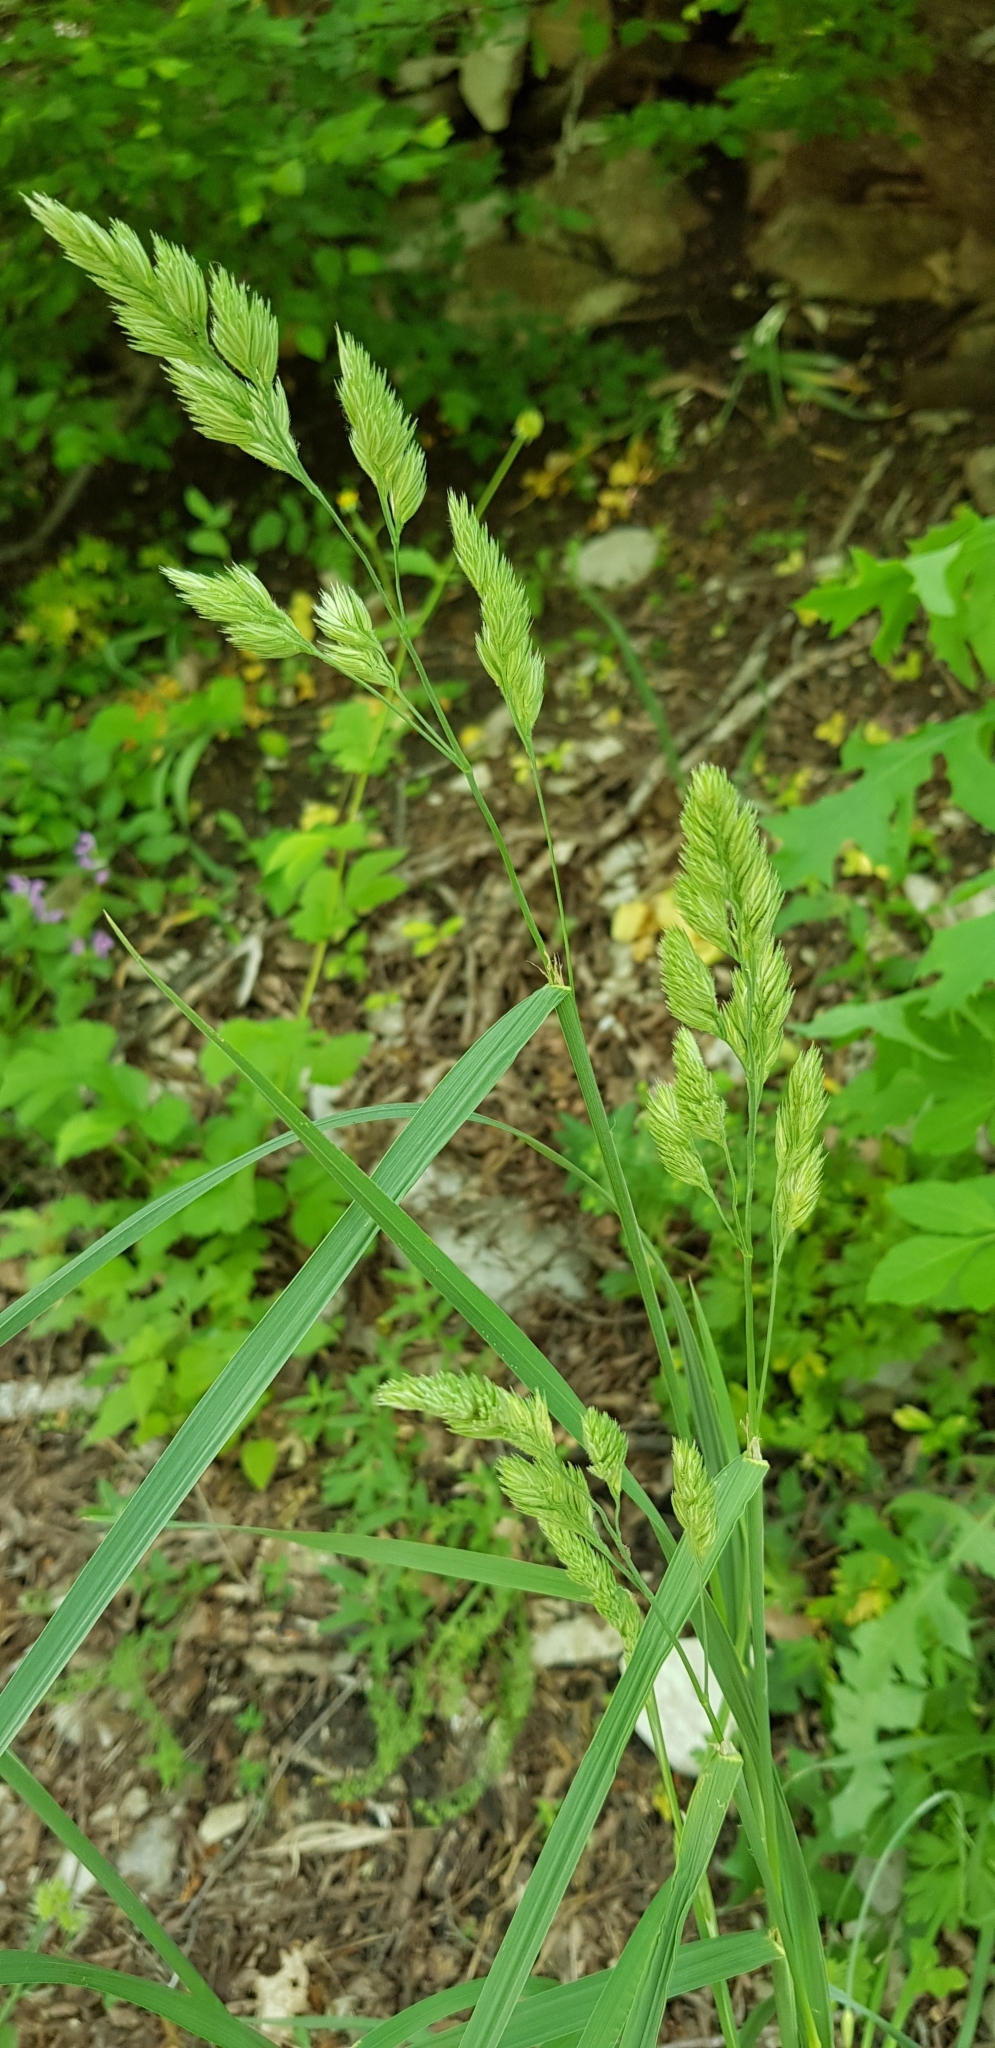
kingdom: Plantae
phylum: Tracheophyta
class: Liliopsida
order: Poales
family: Poaceae
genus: Dactylis
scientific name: Dactylis glomerata
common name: Orchardgrass
